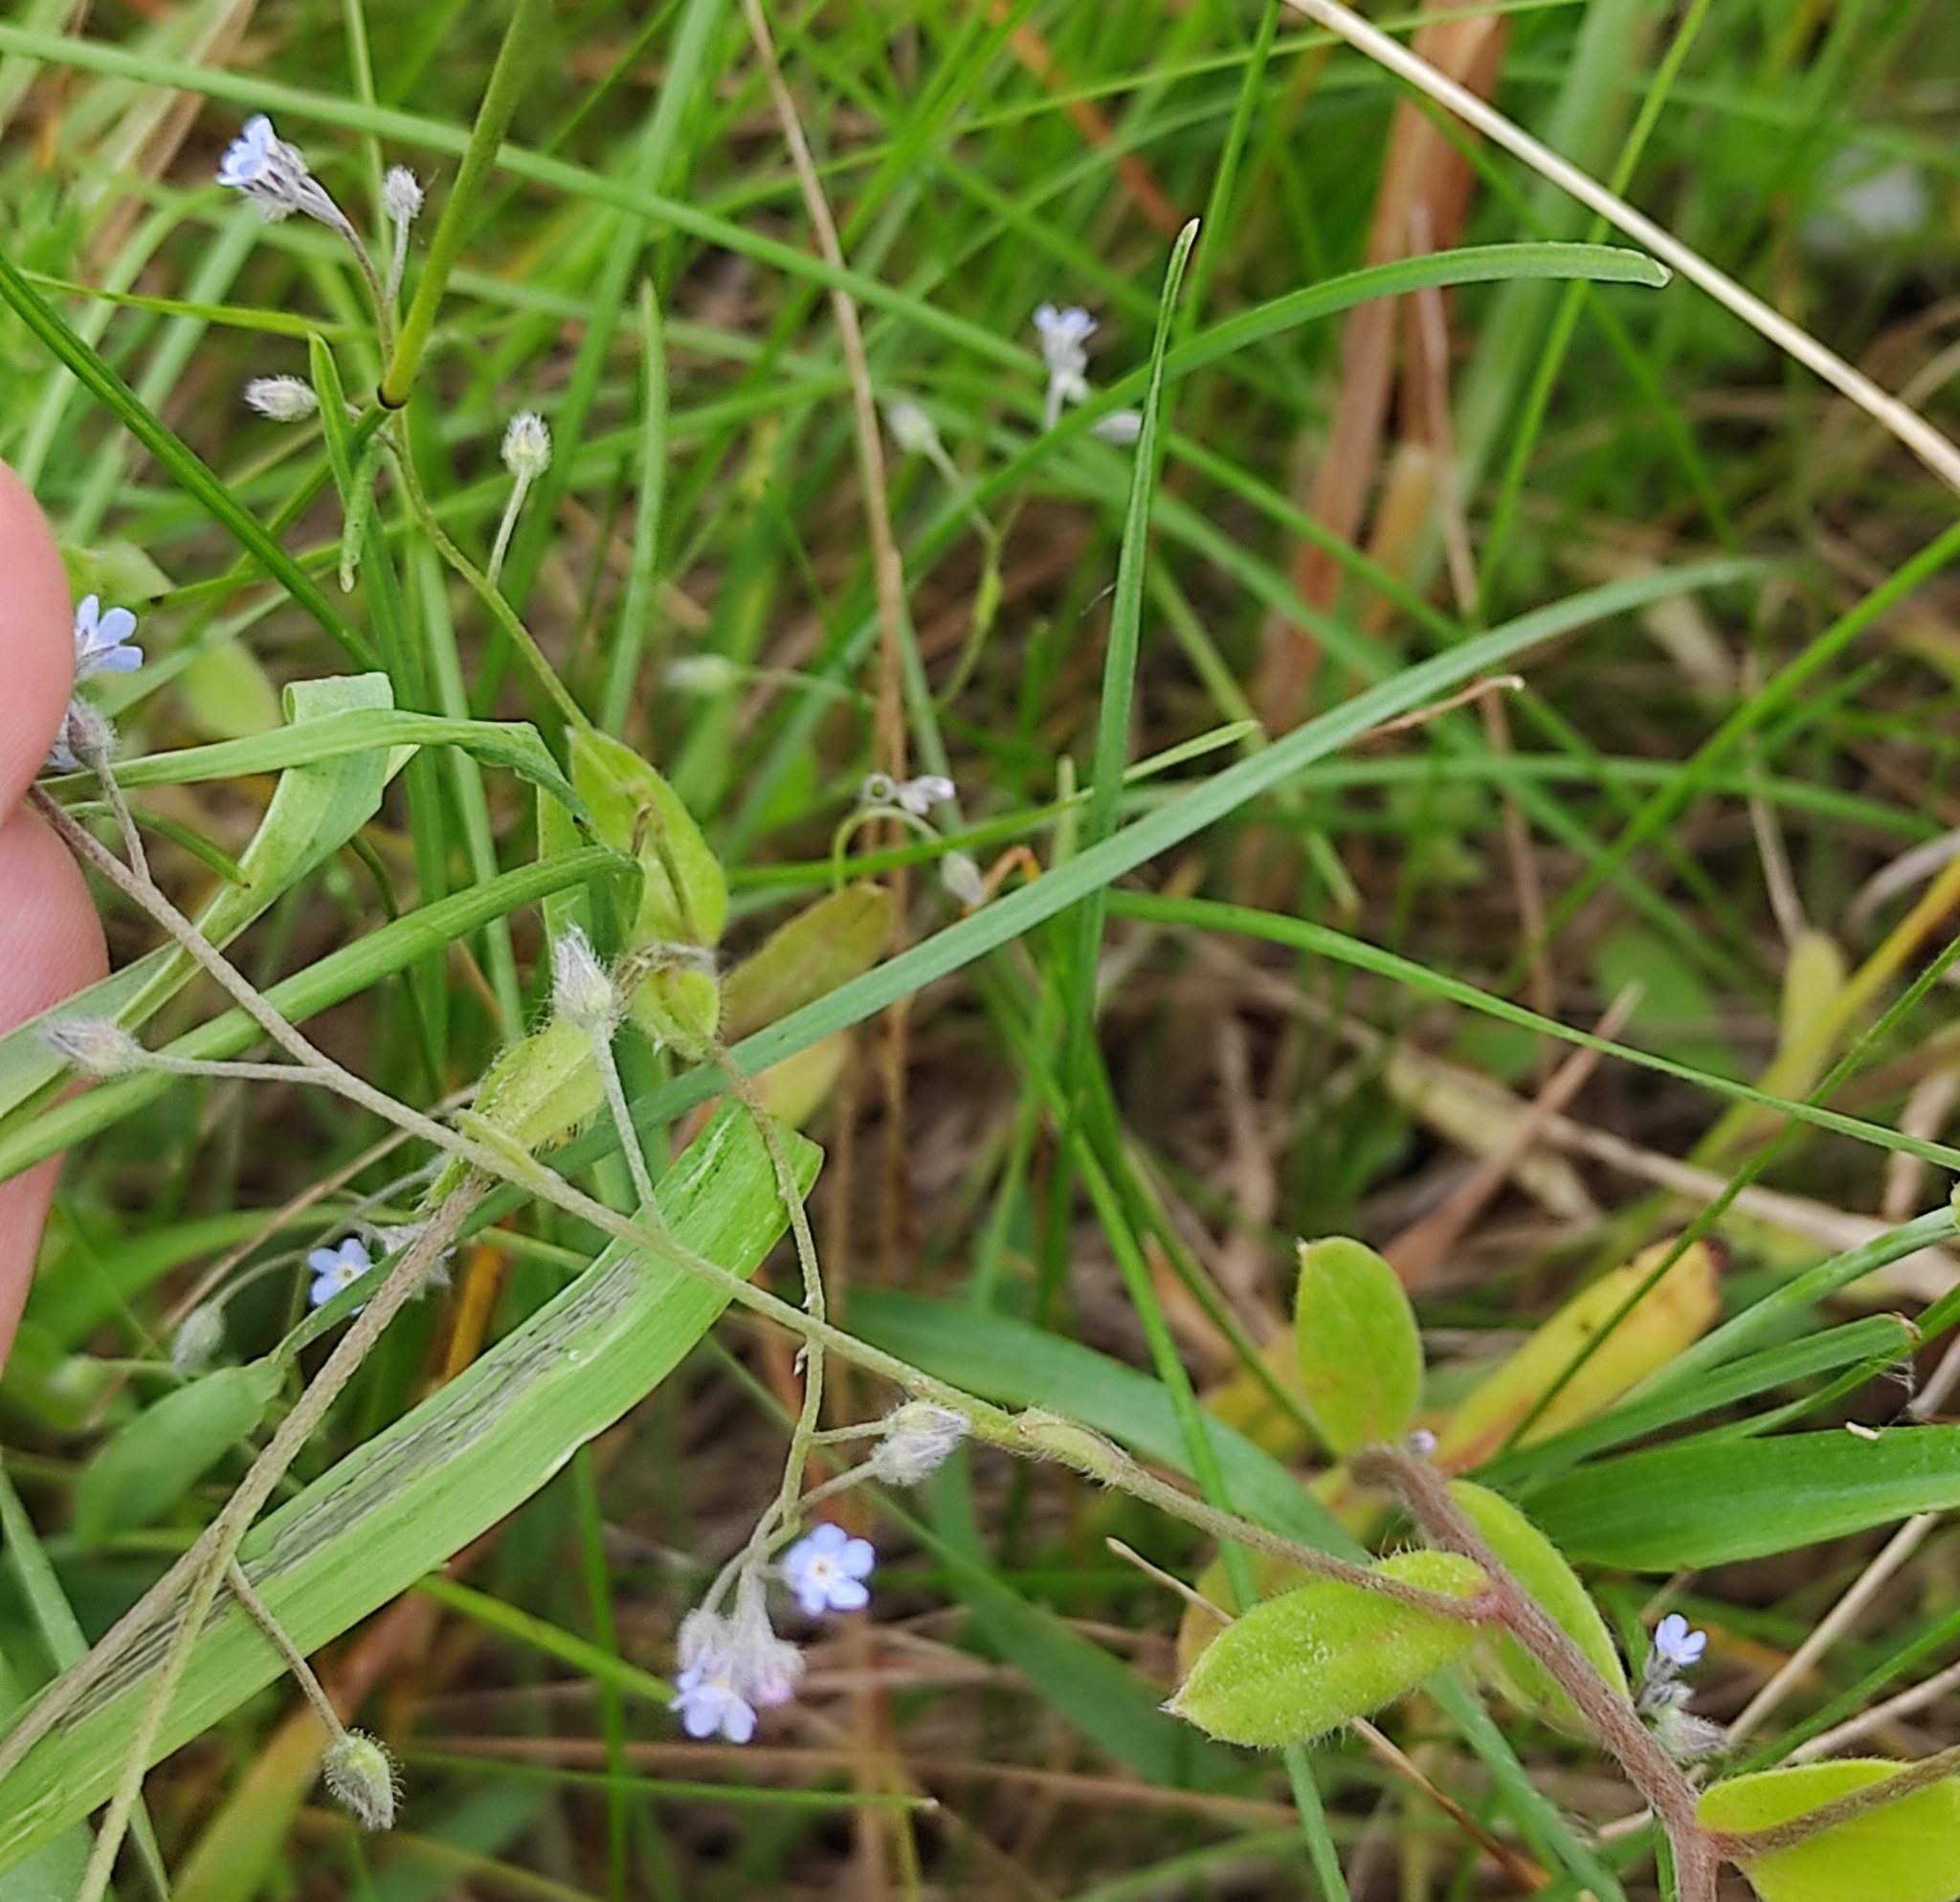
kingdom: Plantae
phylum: Tracheophyta
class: Magnoliopsida
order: Boraginales
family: Boraginaceae
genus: Myosotis
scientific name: Myosotis arvensis
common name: Field forget-me-not
